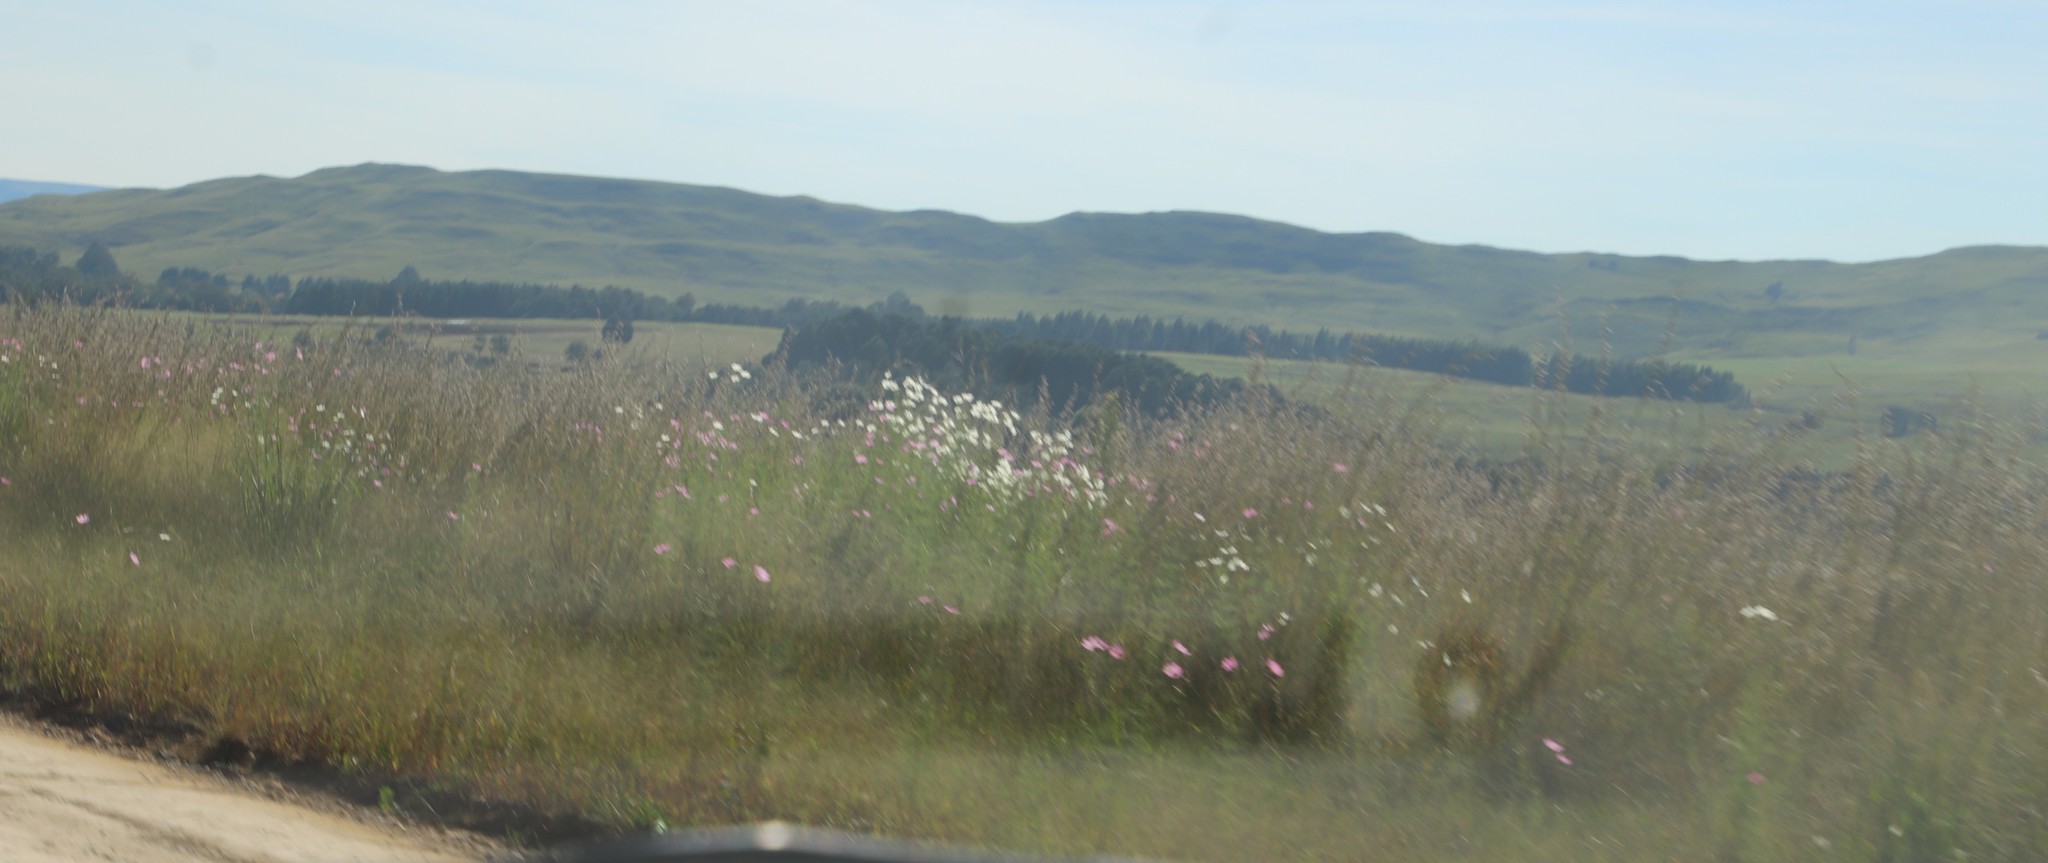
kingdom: Plantae
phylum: Tracheophyta
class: Magnoliopsida
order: Asterales
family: Asteraceae
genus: Cosmos
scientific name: Cosmos bipinnatus
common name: Garden cosmos
